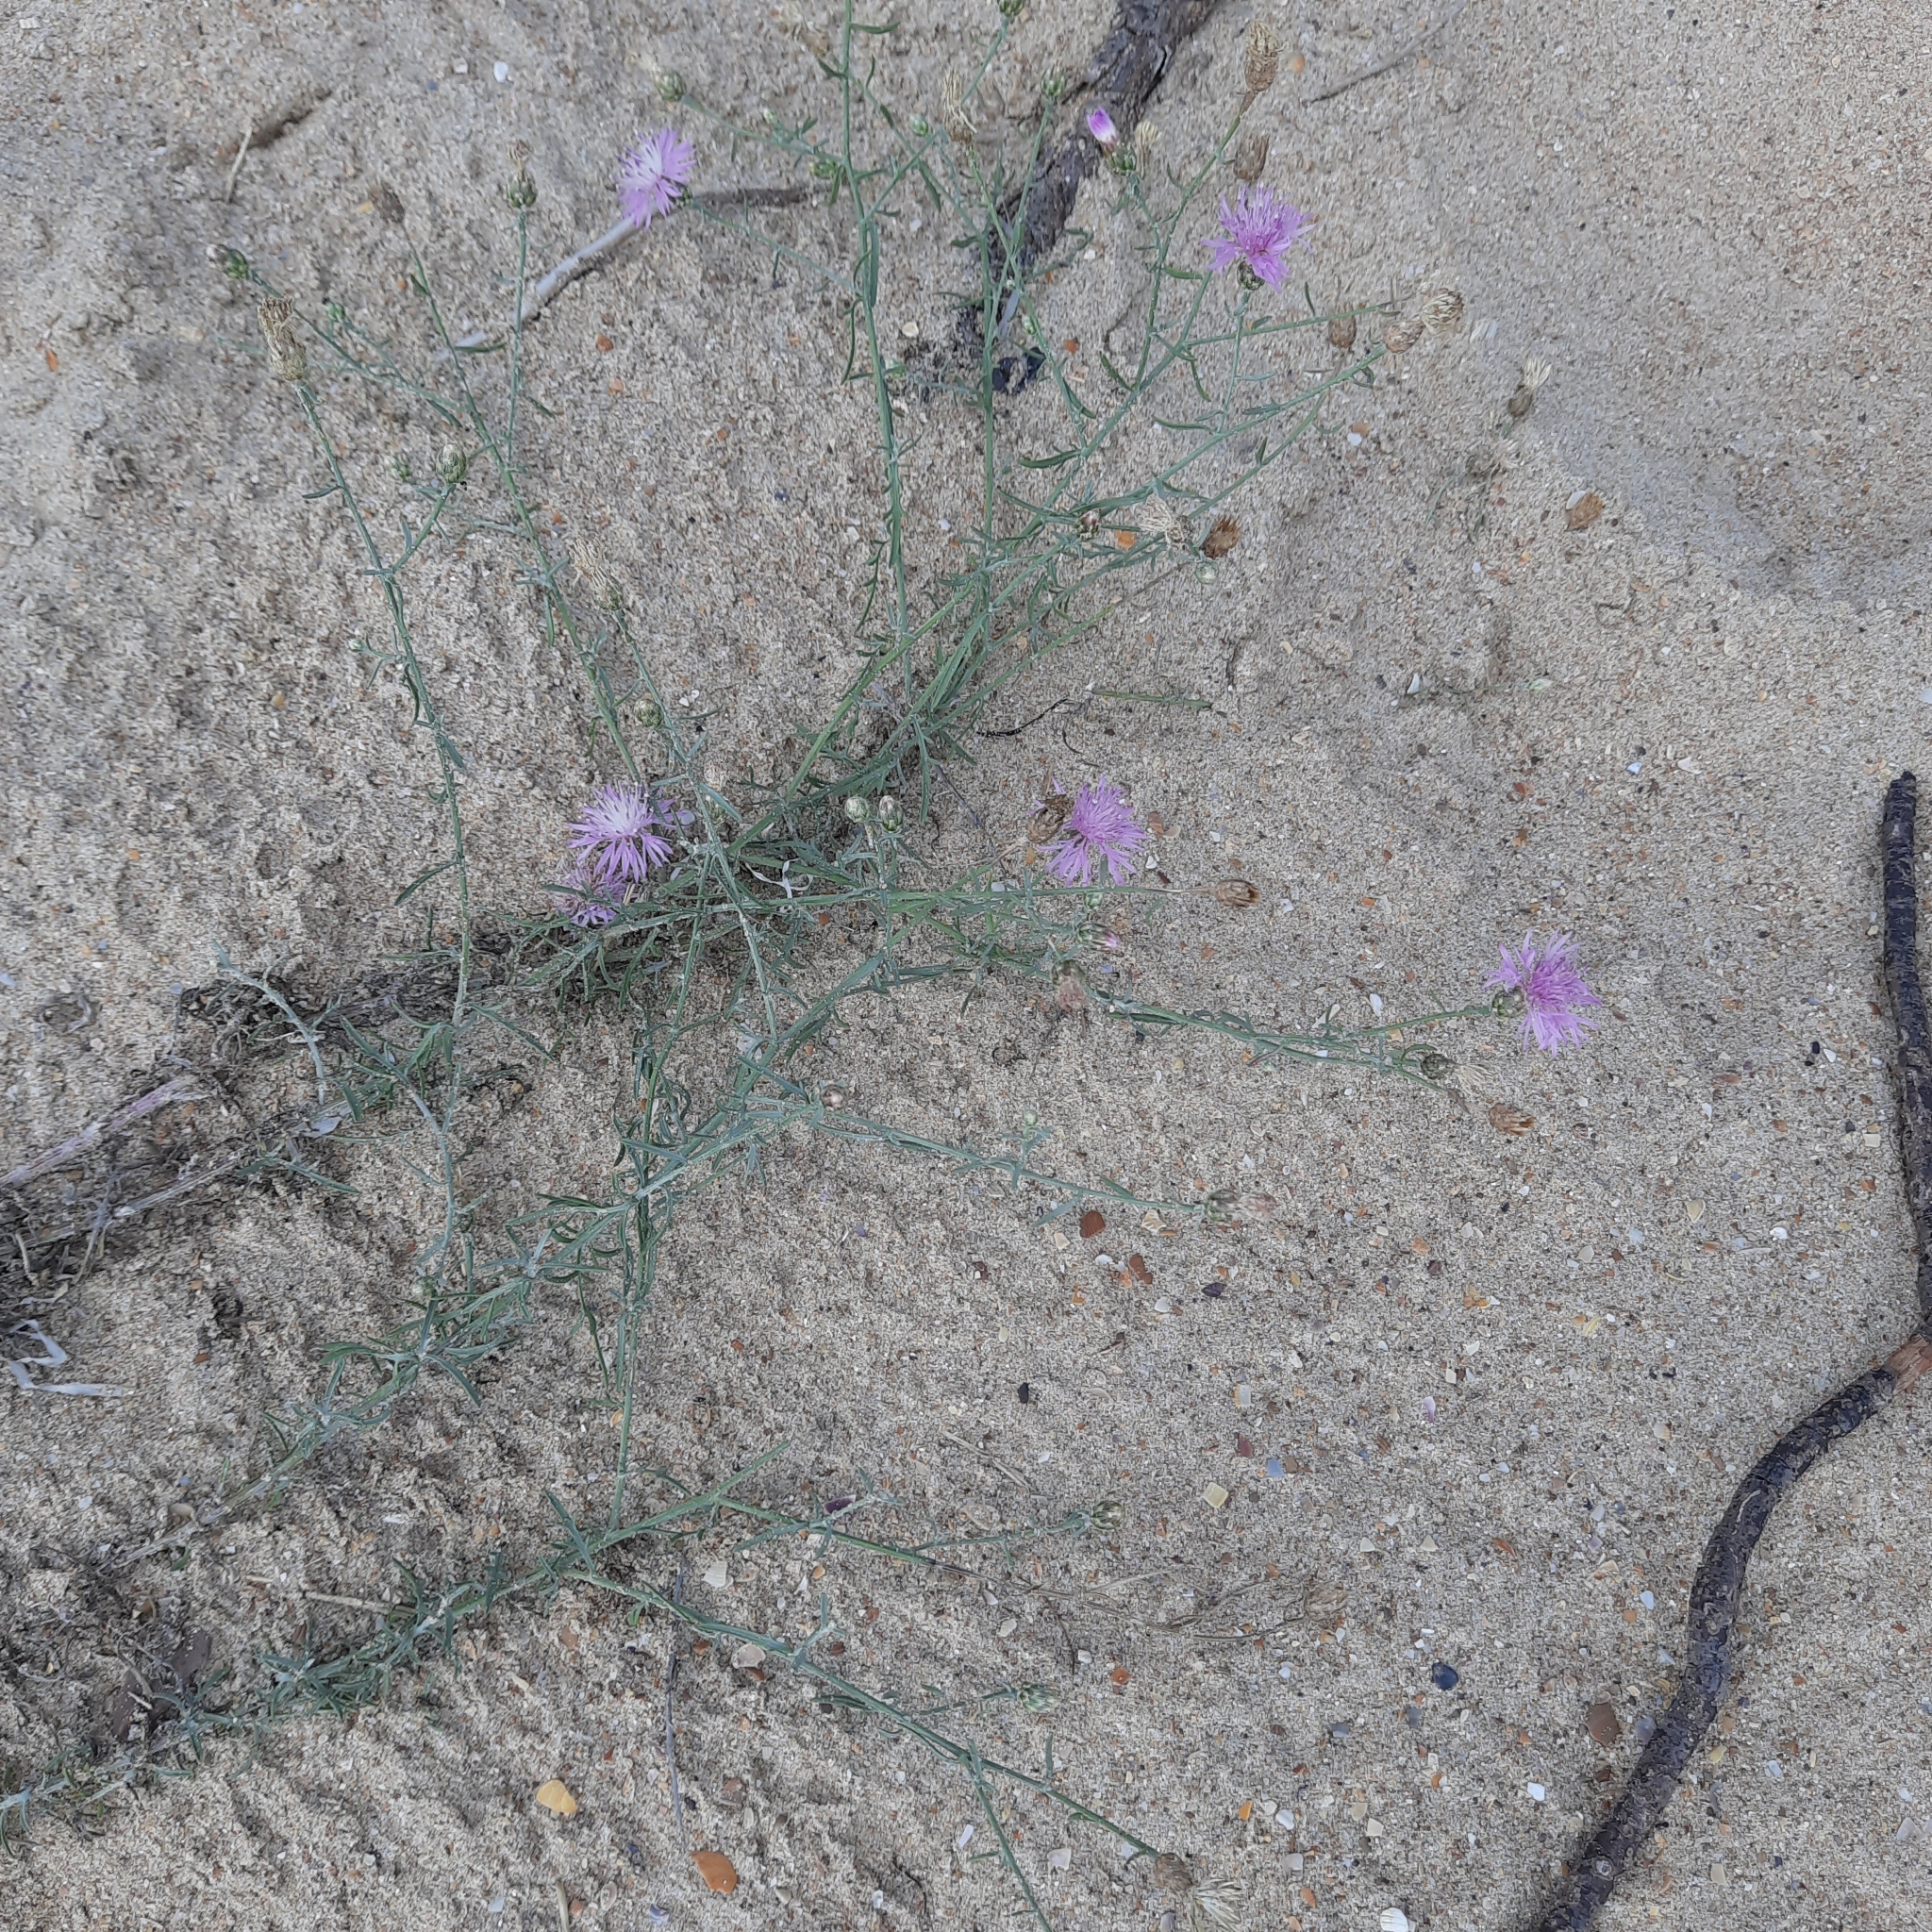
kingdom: Plantae
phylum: Tracheophyta
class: Magnoliopsida
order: Asterales
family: Asteraceae
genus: Centaurea
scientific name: Centaurea arenaria
